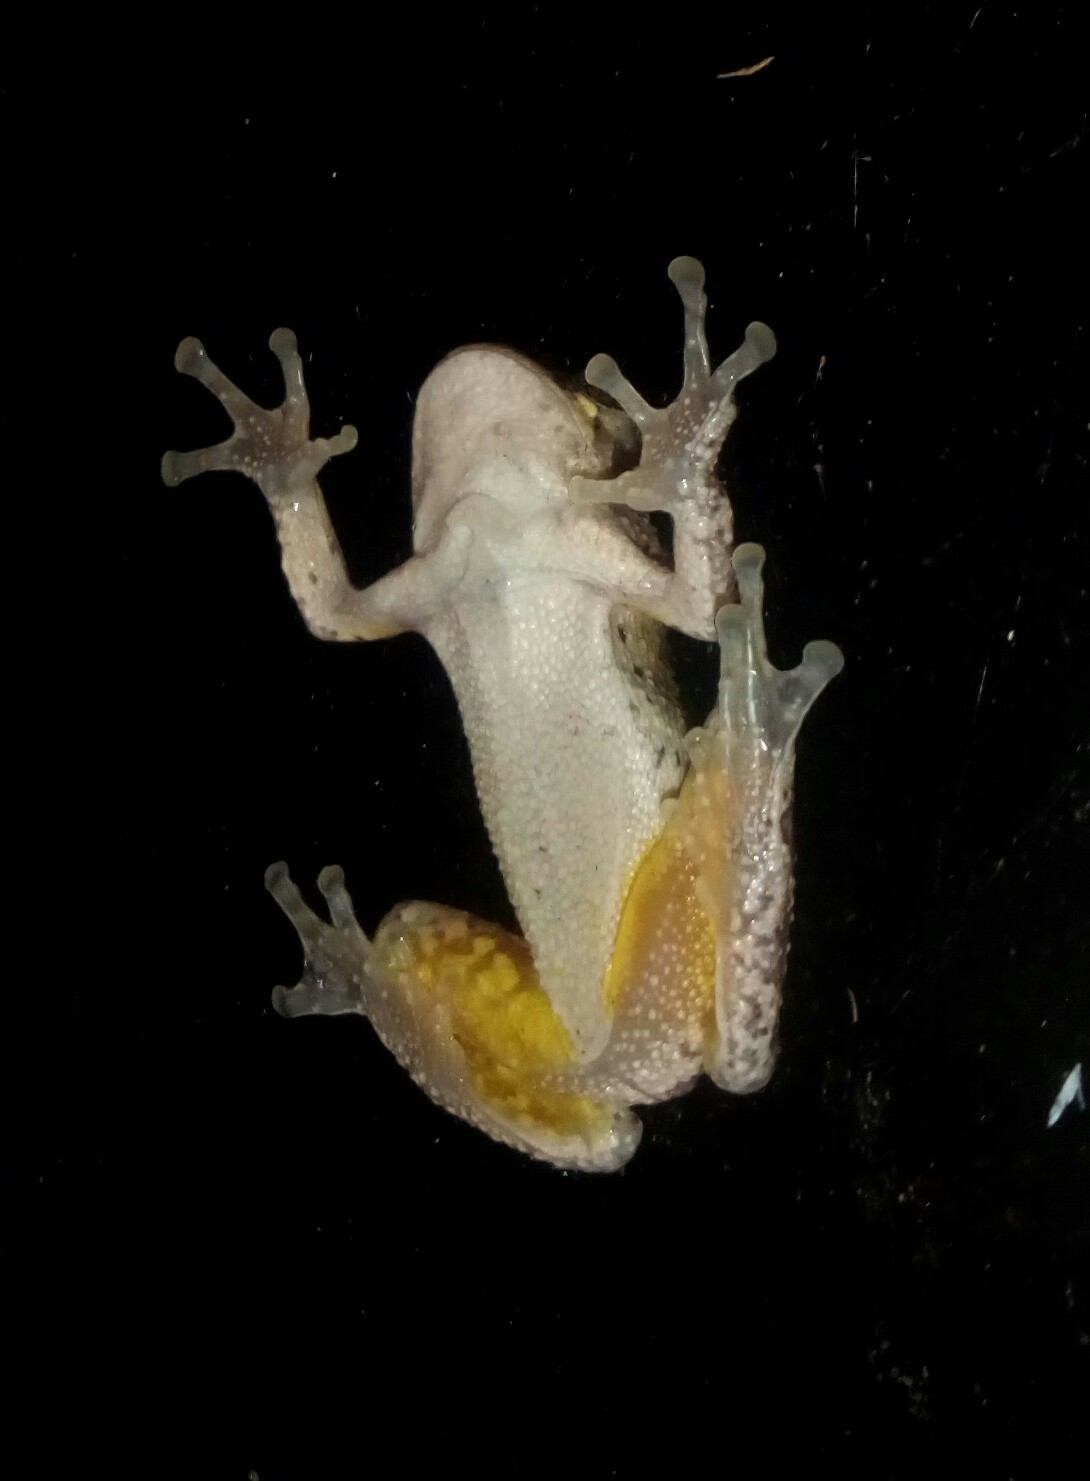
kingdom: Animalia
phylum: Chordata
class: Amphibia
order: Anura
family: Hylidae
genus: Dryophytes
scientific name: Dryophytes chrysoscelis
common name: Cope's gray treefrog
